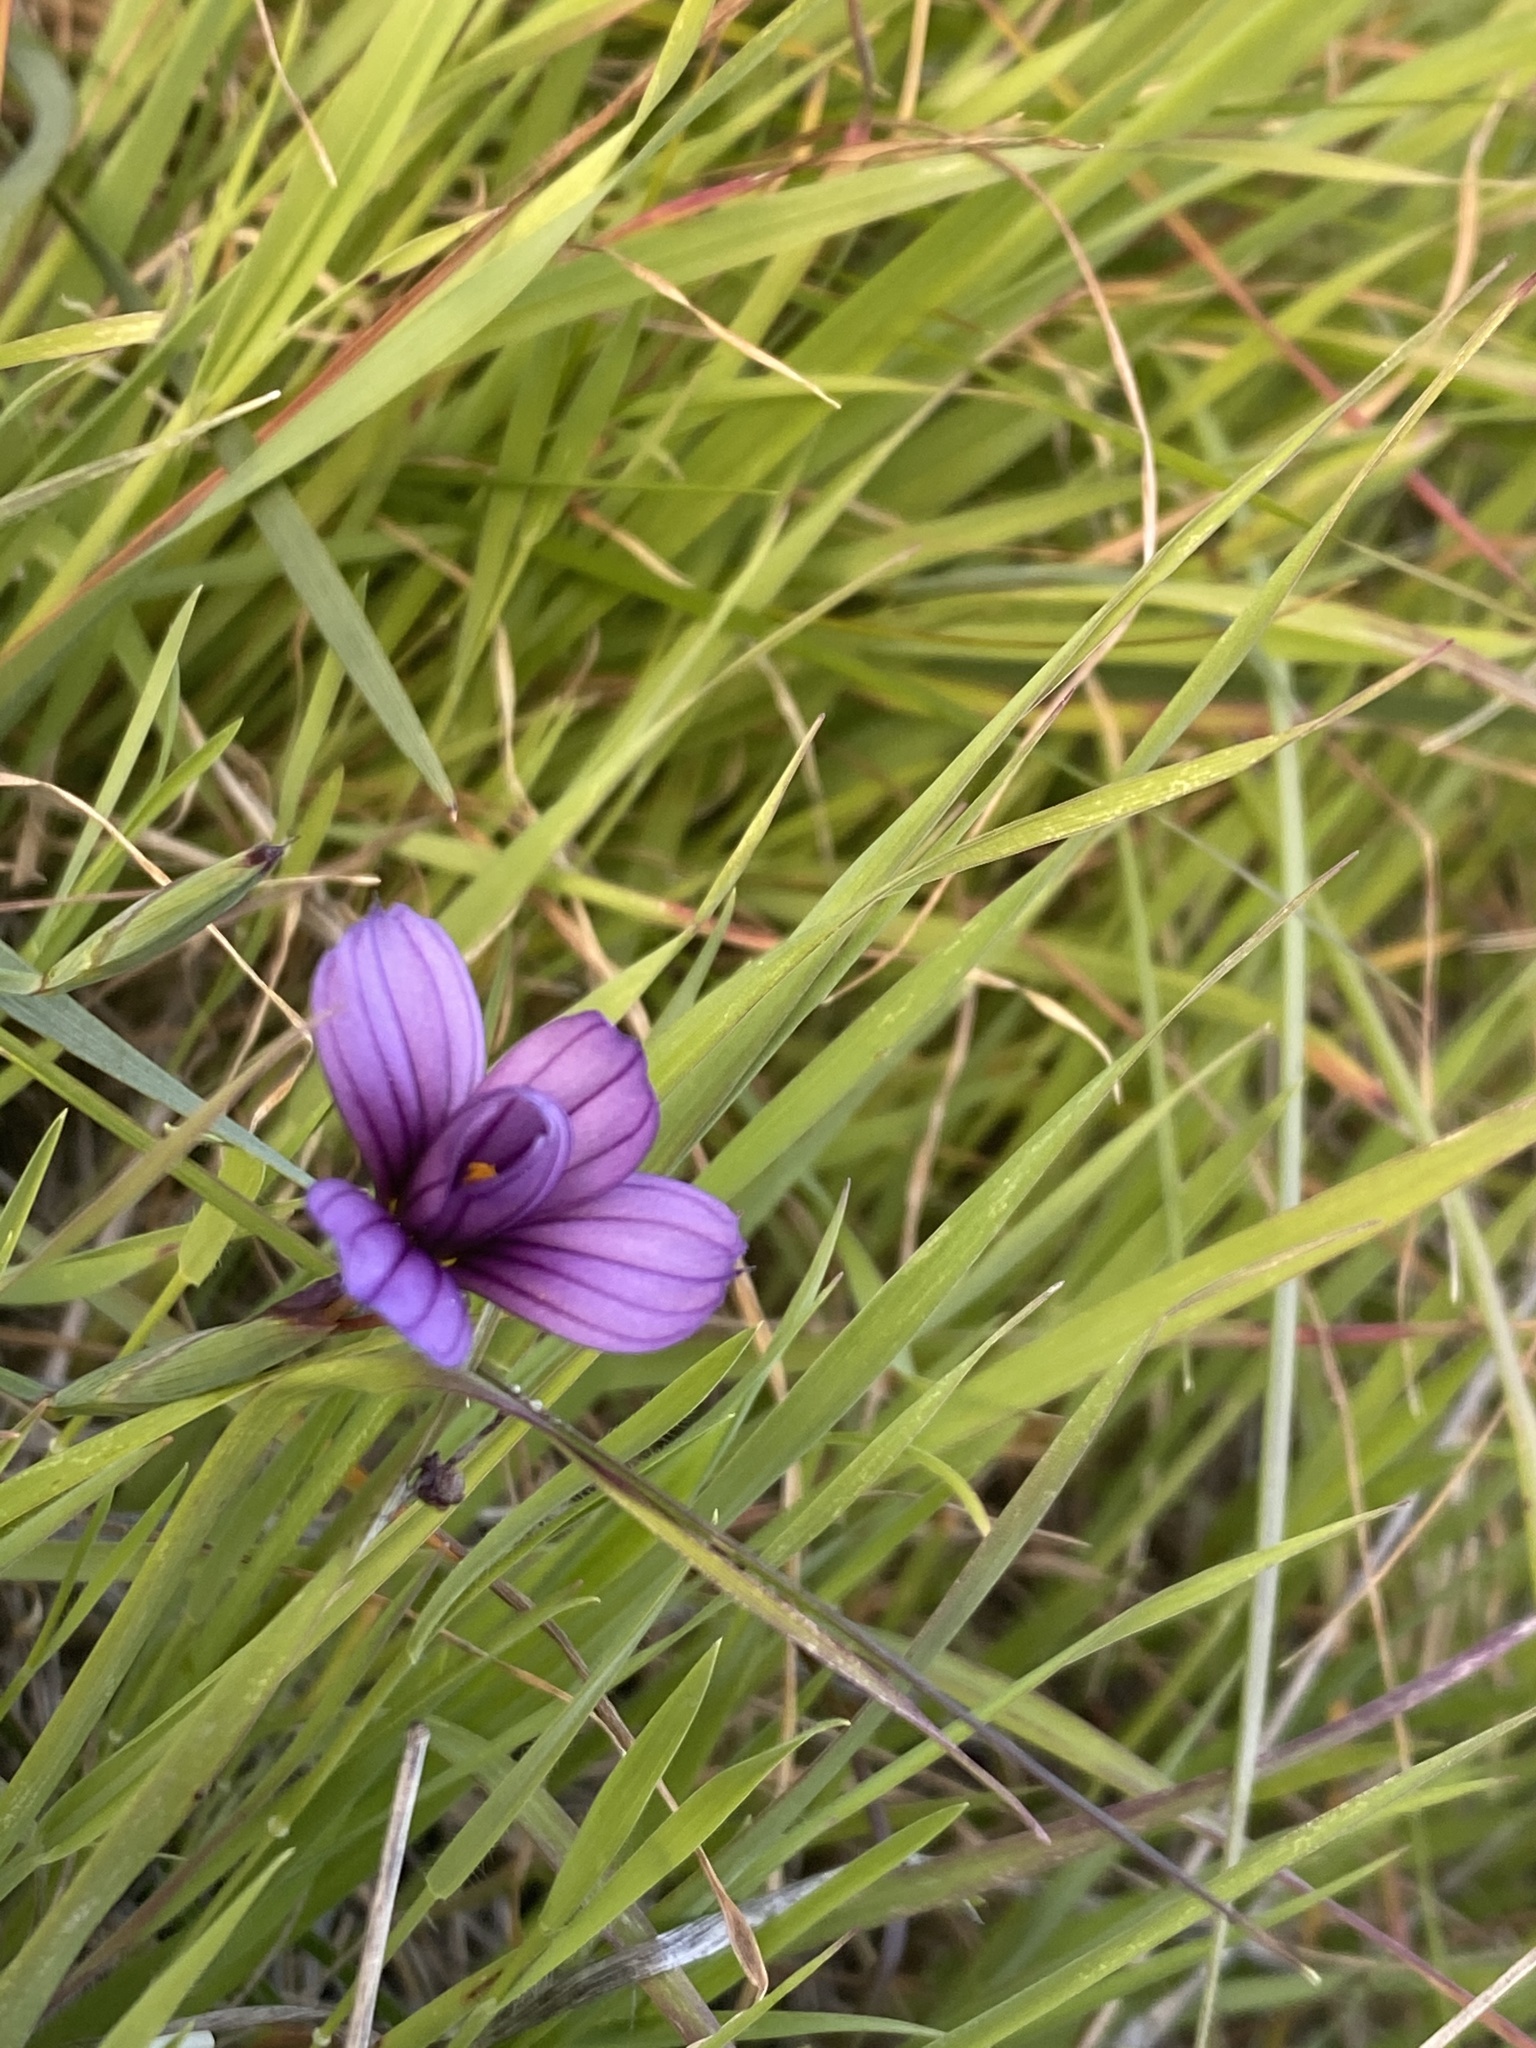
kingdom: Plantae
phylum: Tracheophyta
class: Liliopsida
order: Asparagales
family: Iridaceae
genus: Sisyrinchium
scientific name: Sisyrinchium bellum
